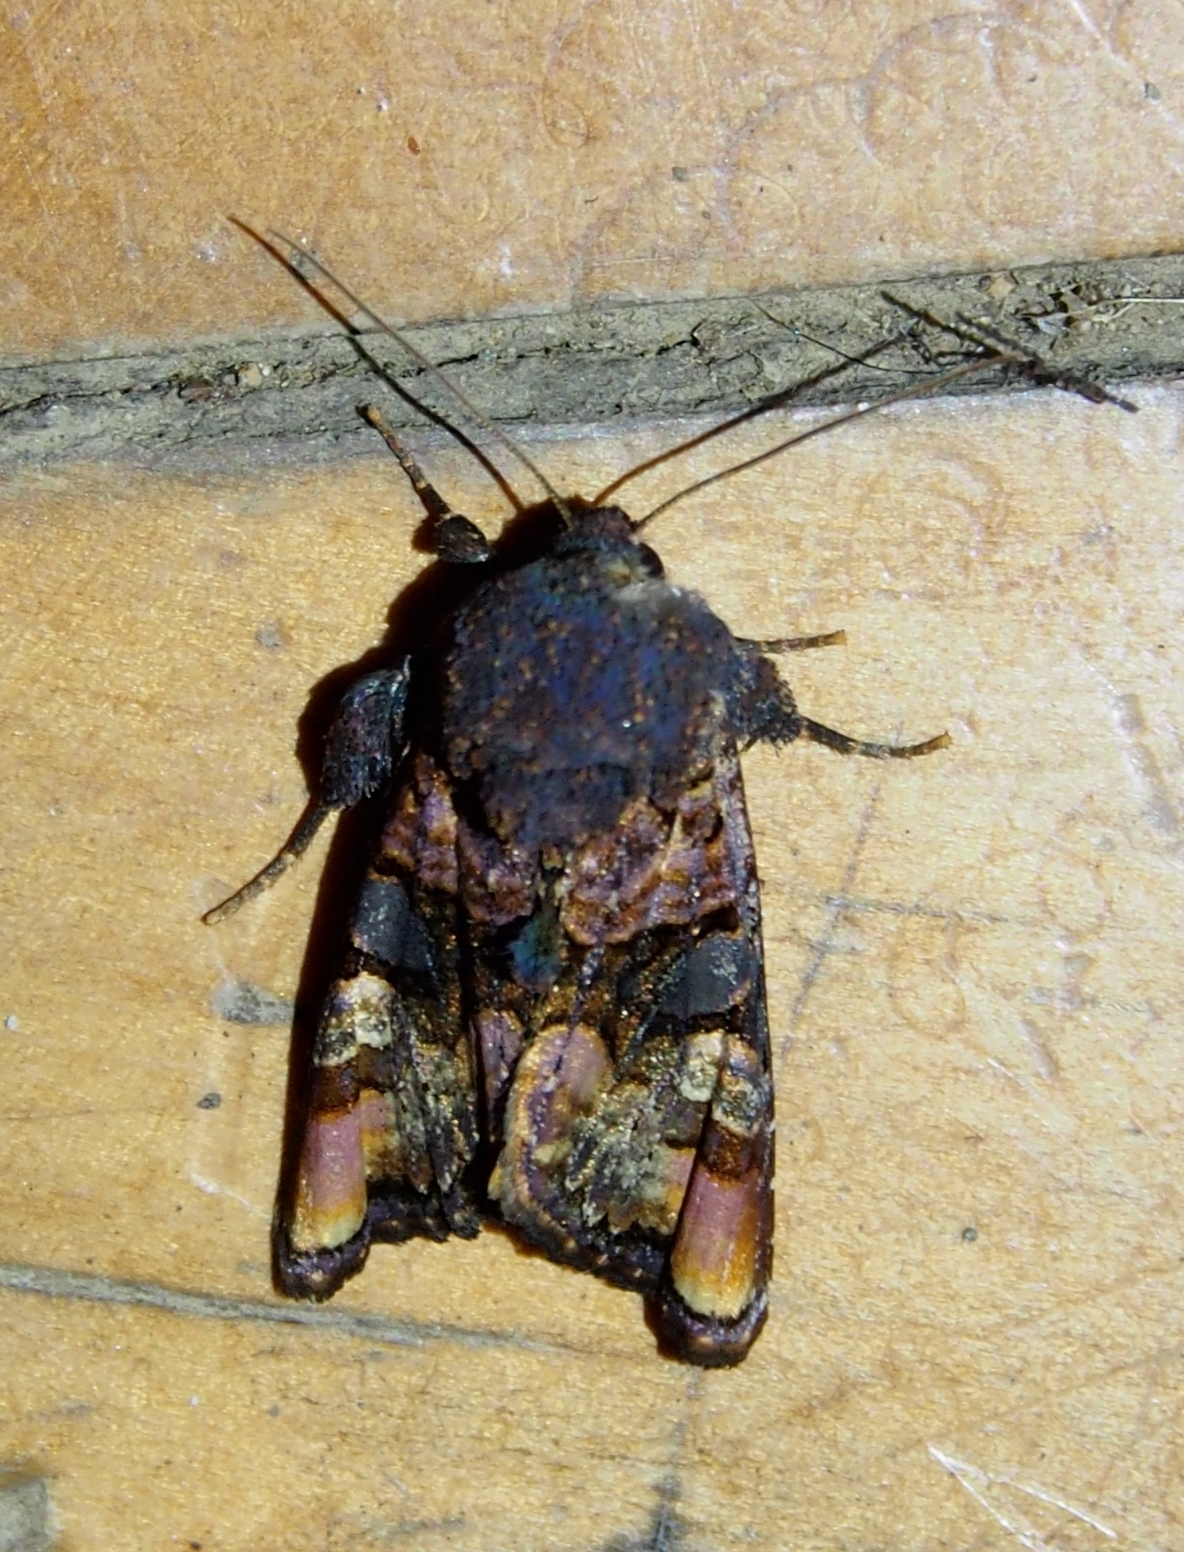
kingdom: Animalia
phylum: Arthropoda
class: Insecta
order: Lepidoptera
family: Noctuidae
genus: Euplexia
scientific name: Euplexia triplaga
